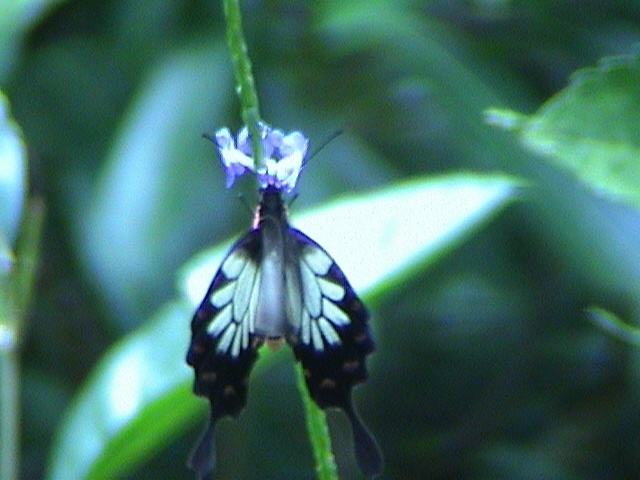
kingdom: Animalia
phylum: Arthropoda
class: Insecta
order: Lepidoptera
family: Papilionidae
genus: Pachliopta
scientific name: Pachliopta pandiyana
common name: Malabar rose
